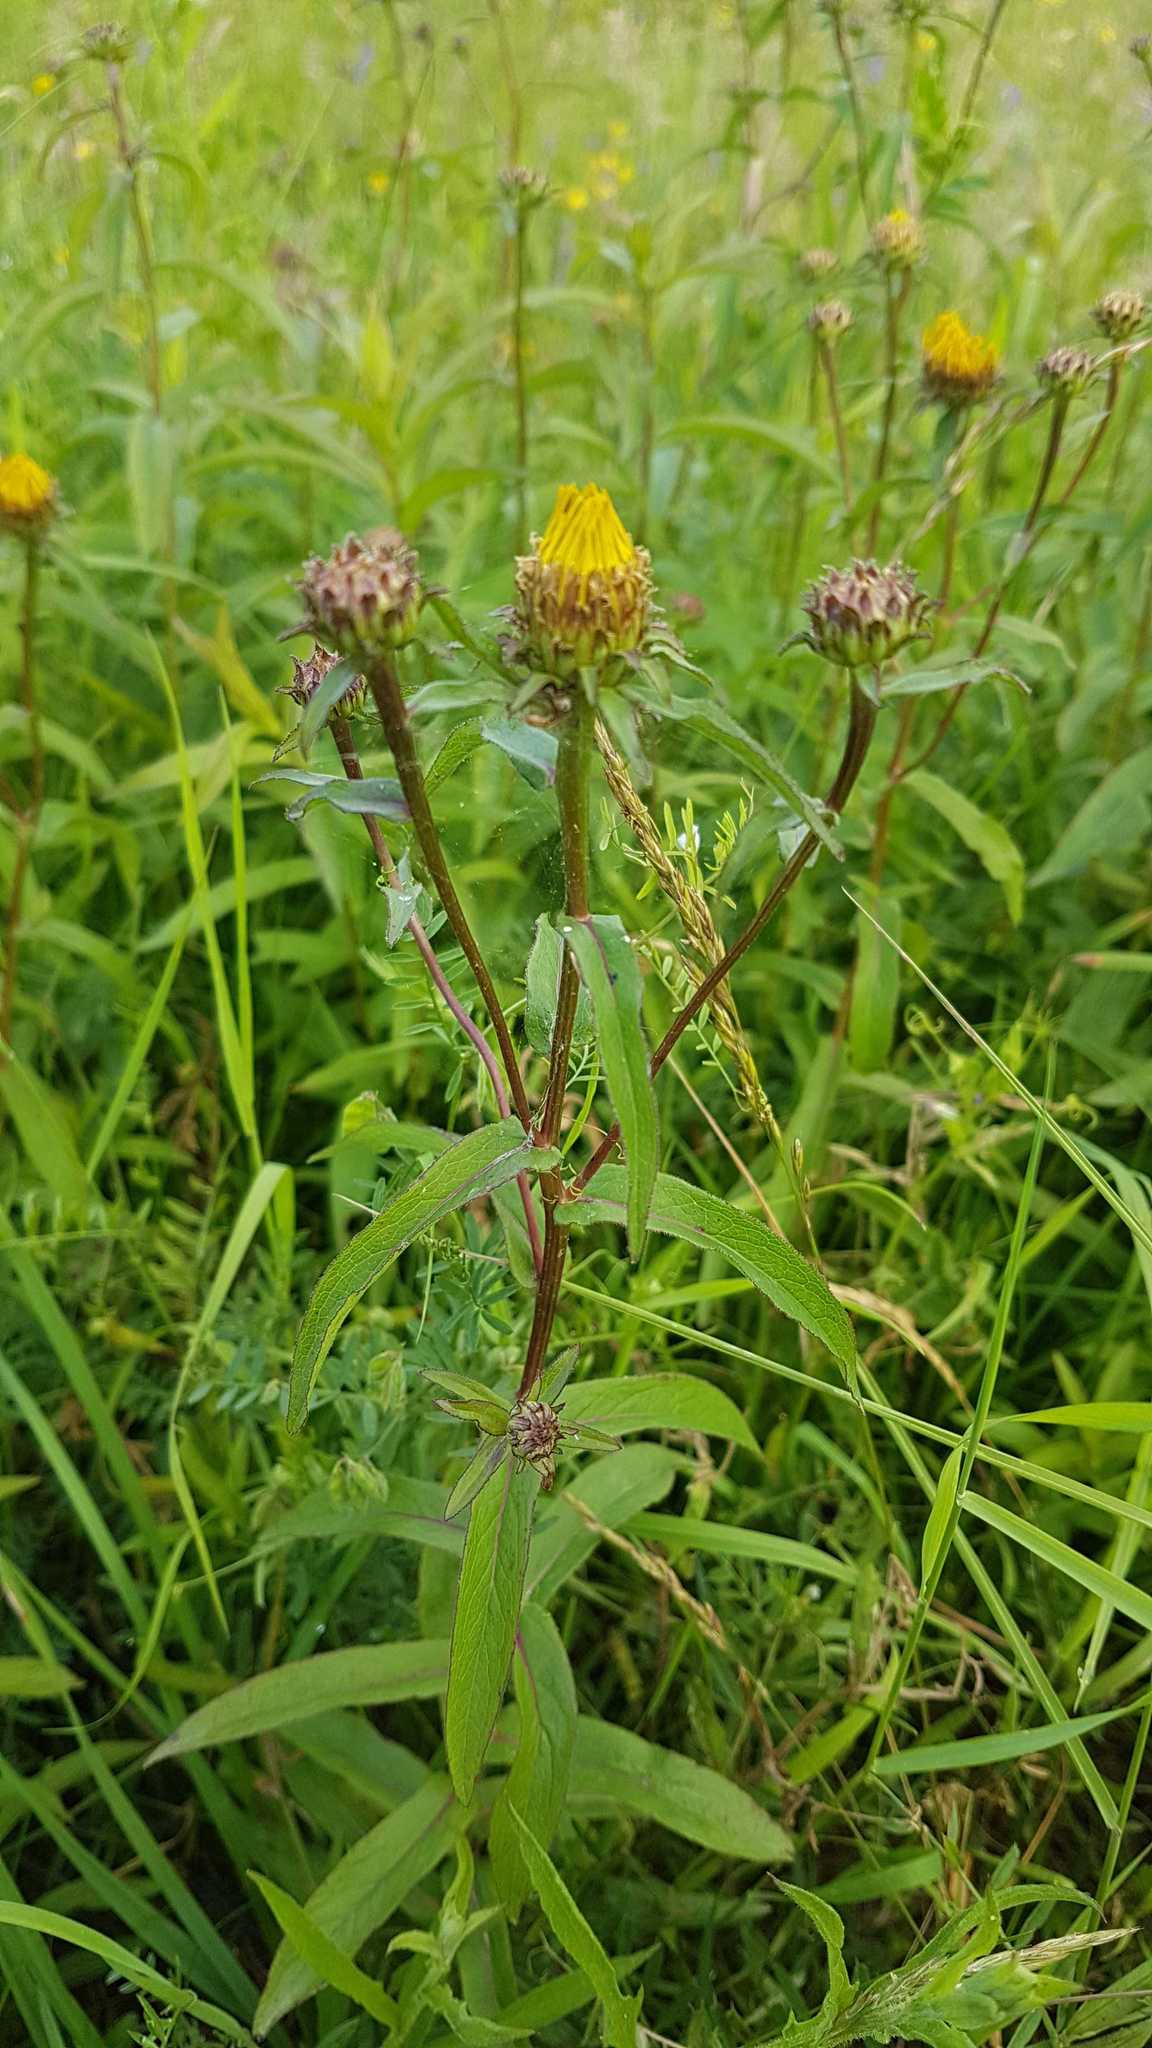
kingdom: Plantae
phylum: Tracheophyta
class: Magnoliopsida
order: Asterales
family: Asteraceae
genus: Pentanema
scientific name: Pentanema salicinum
